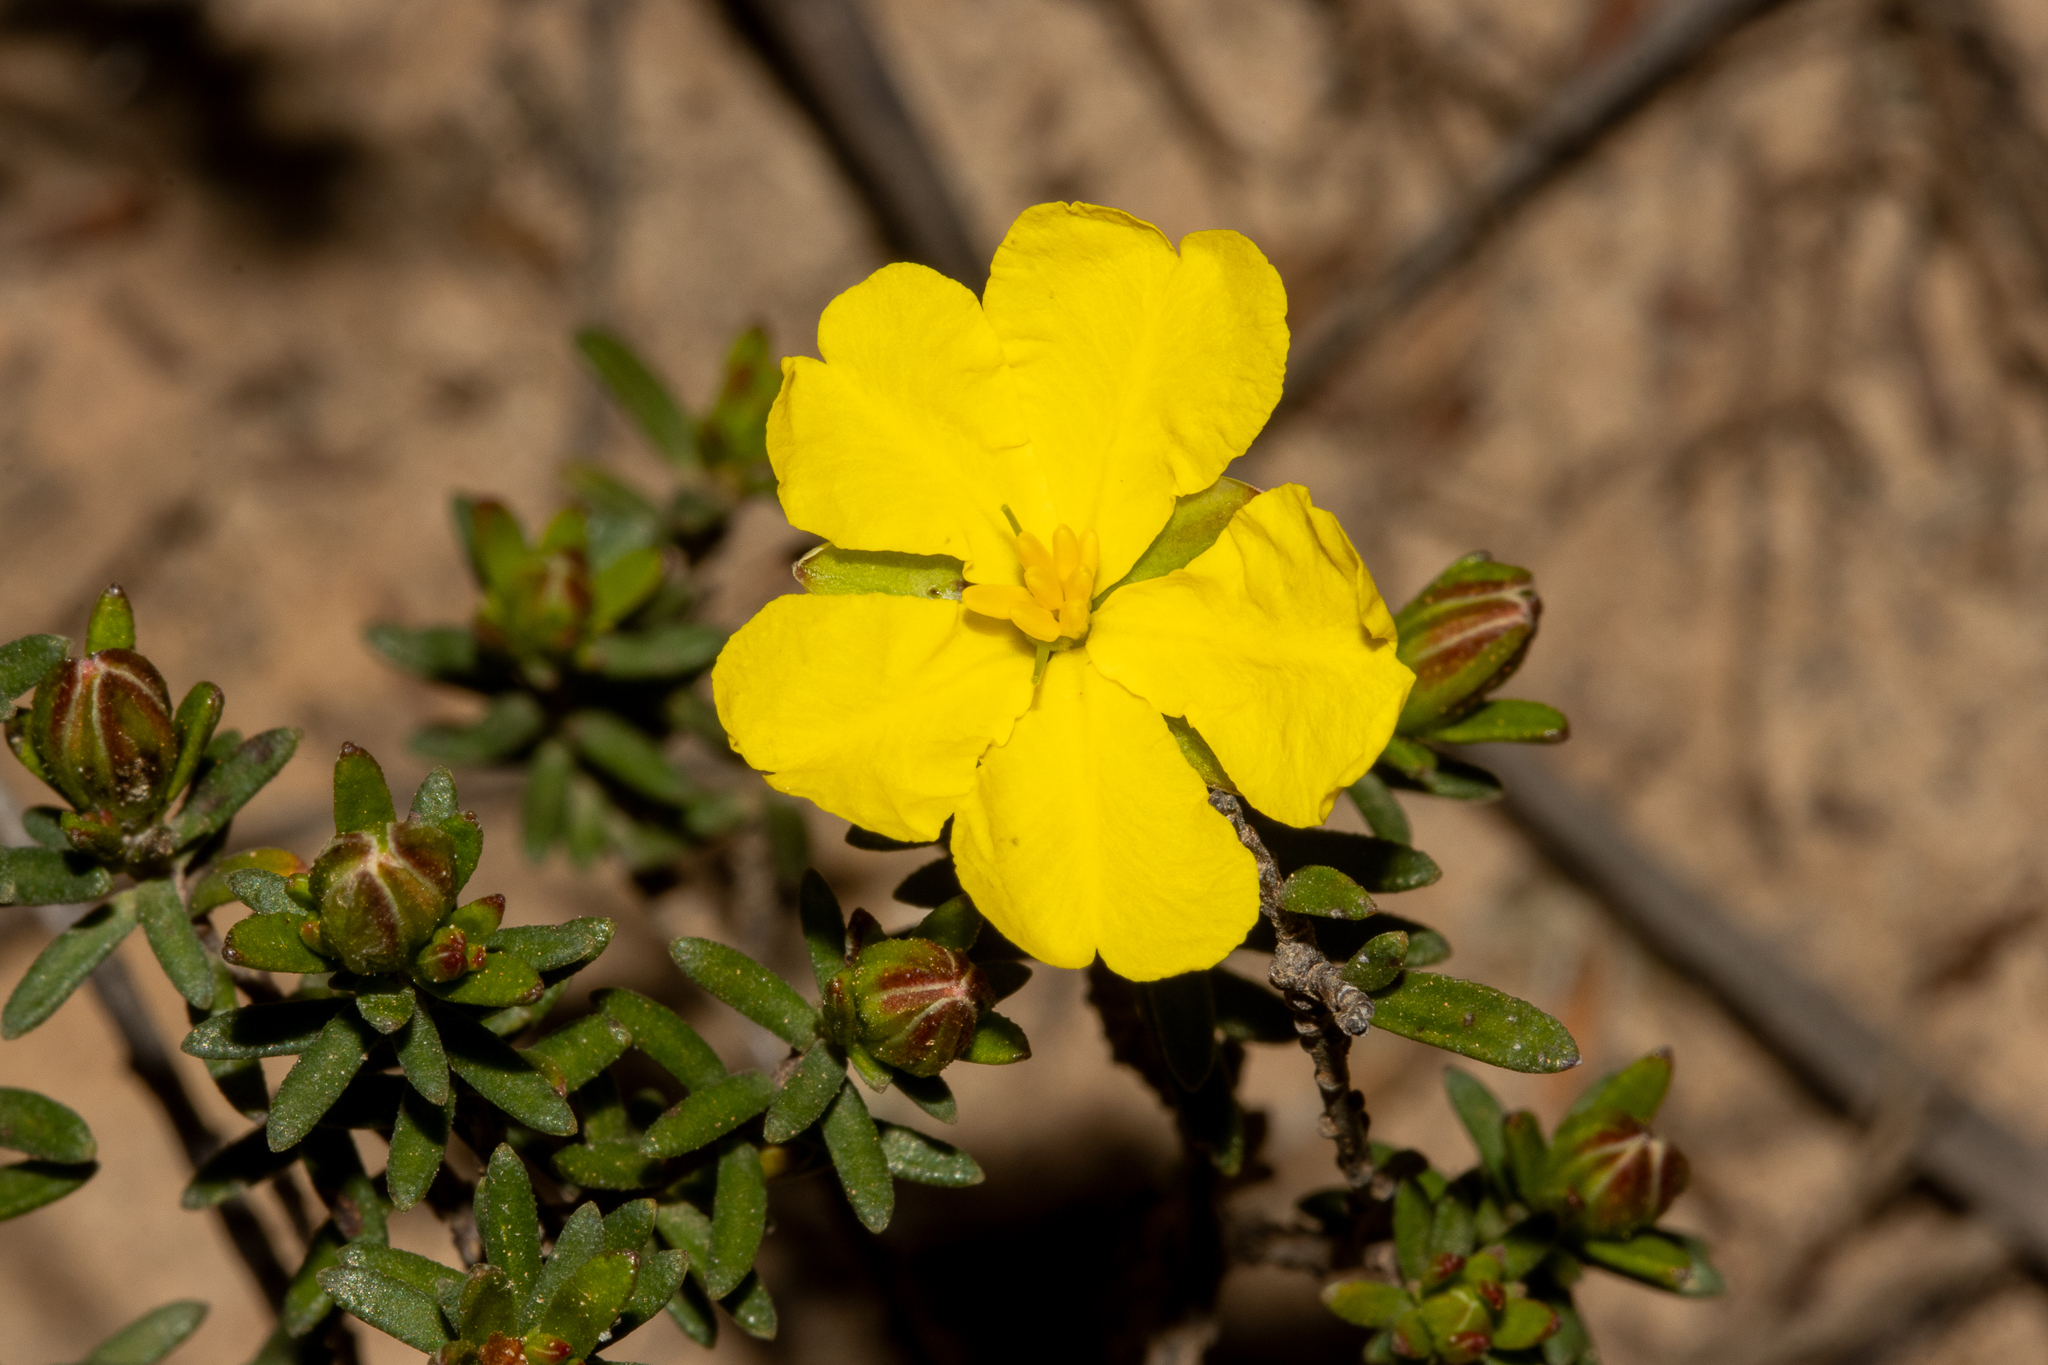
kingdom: Plantae
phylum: Tracheophyta
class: Magnoliopsida
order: Dilleniales
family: Dilleniaceae
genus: Hibbertia
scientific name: Hibbertia devitata
